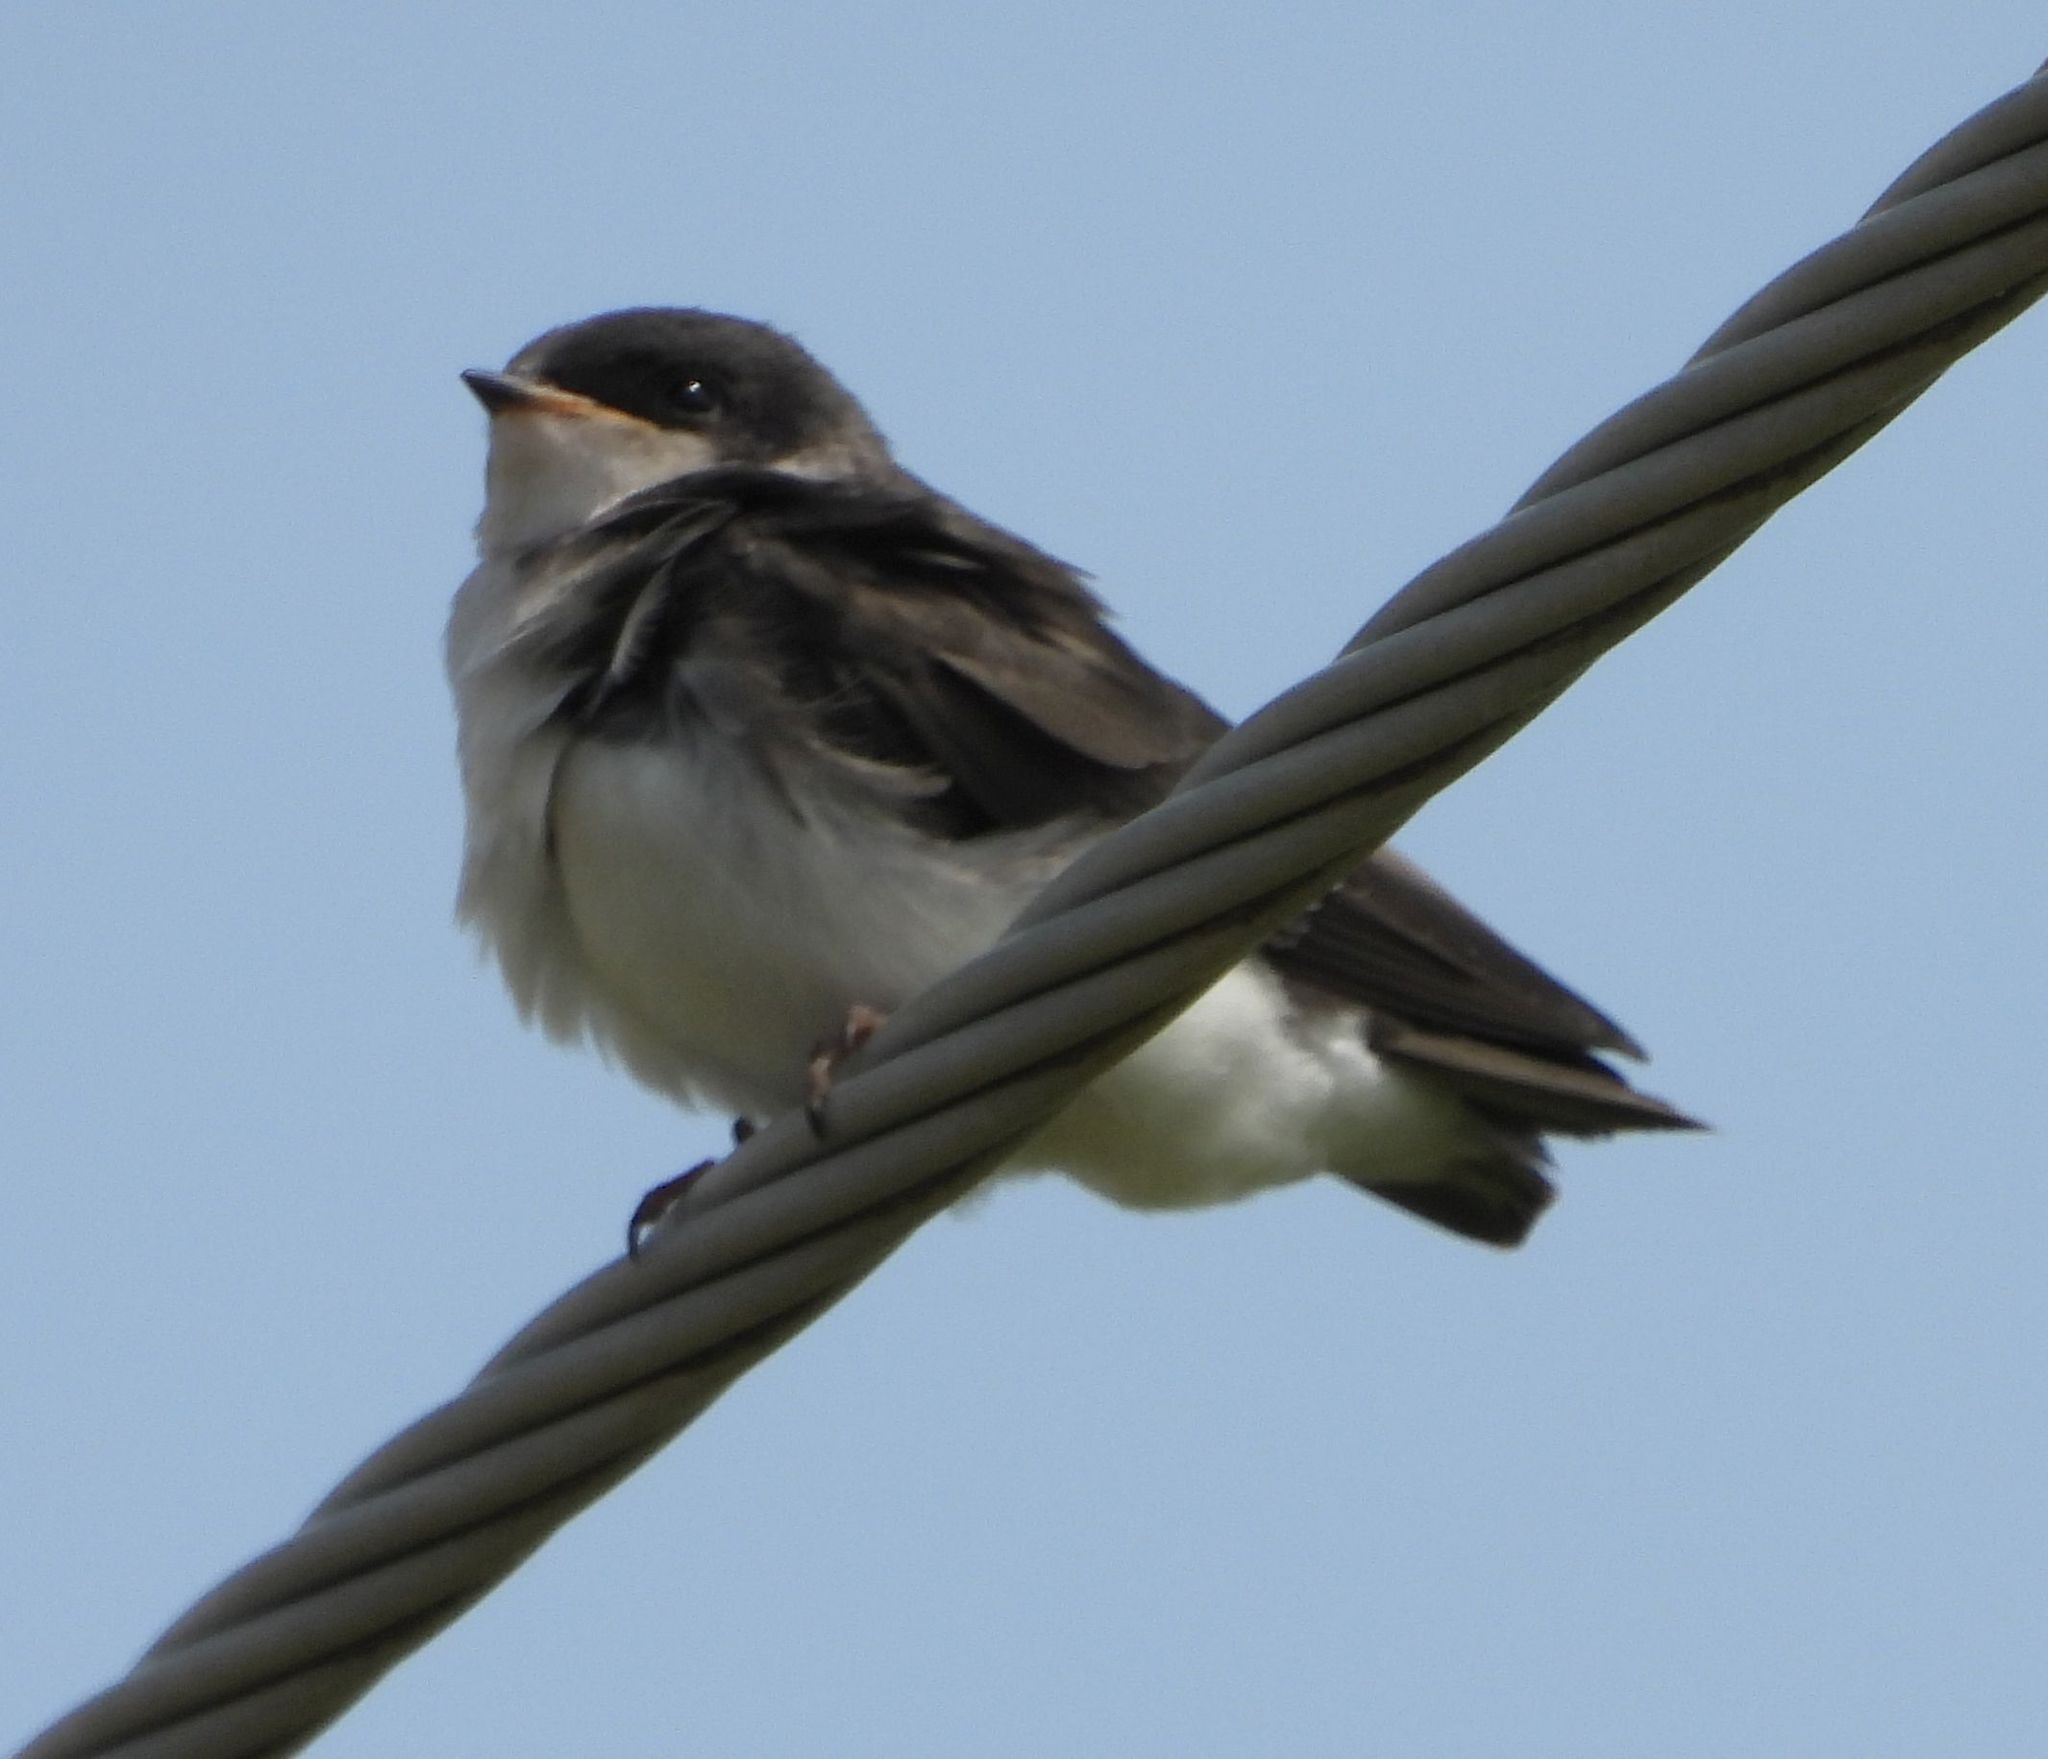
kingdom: Animalia
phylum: Chordata
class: Aves
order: Passeriformes
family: Hirundinidae
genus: Tachycineta
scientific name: Tachycineta bicolor
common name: Tree swallow
